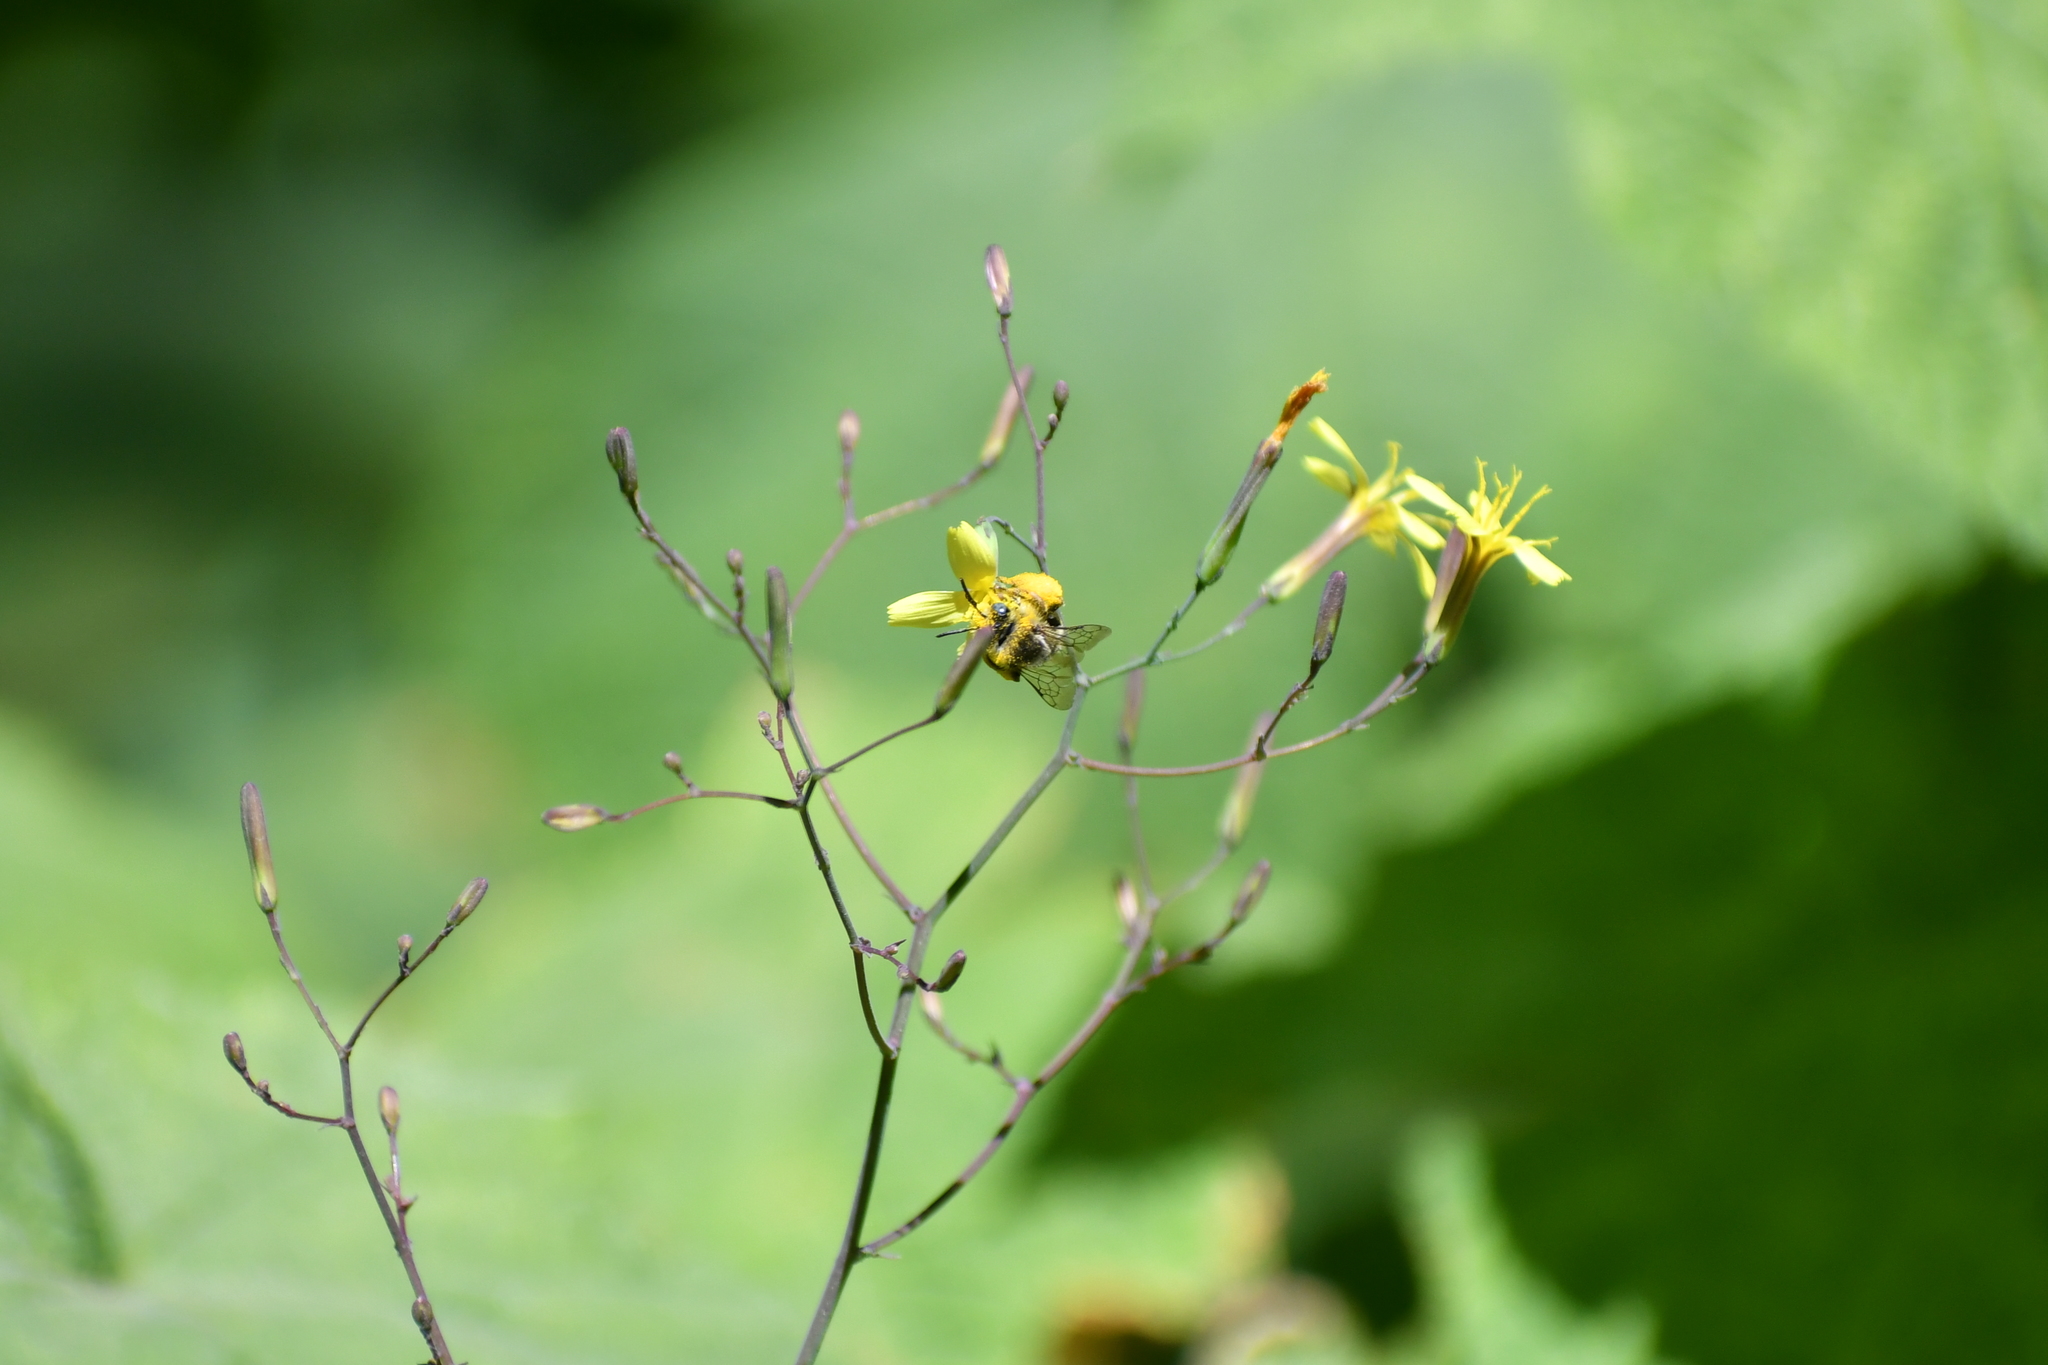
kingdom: Plantae
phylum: Tracheophyta
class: Magnoliopsida
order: Asterales
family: Asteraceae
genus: Mycelis
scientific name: Mycelis muralis
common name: Wall lettuce
